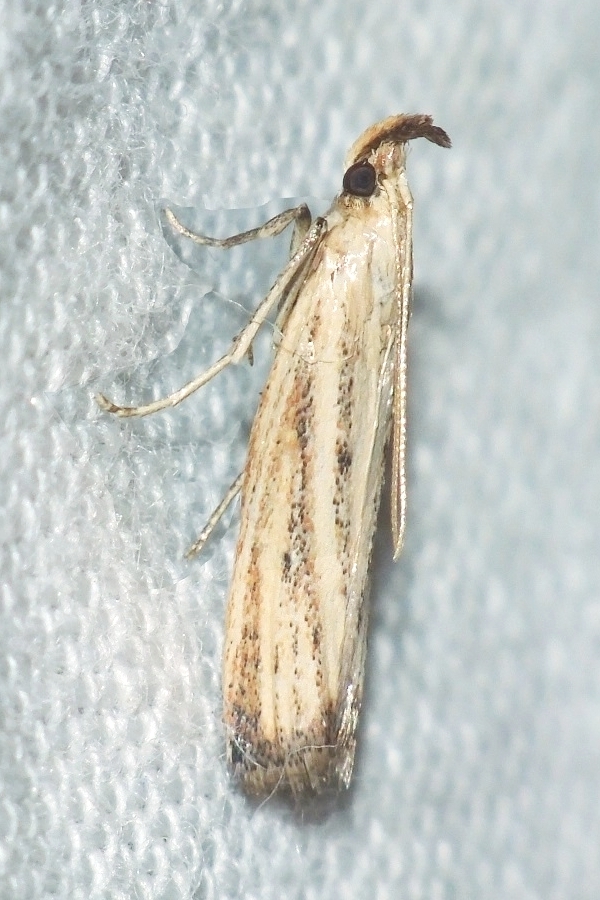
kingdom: Animalia
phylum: Arthropoda
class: Insecta
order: Lepidoptera
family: Pyralidae
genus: Hypsotropa
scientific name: Hypsotropa unipunctella
